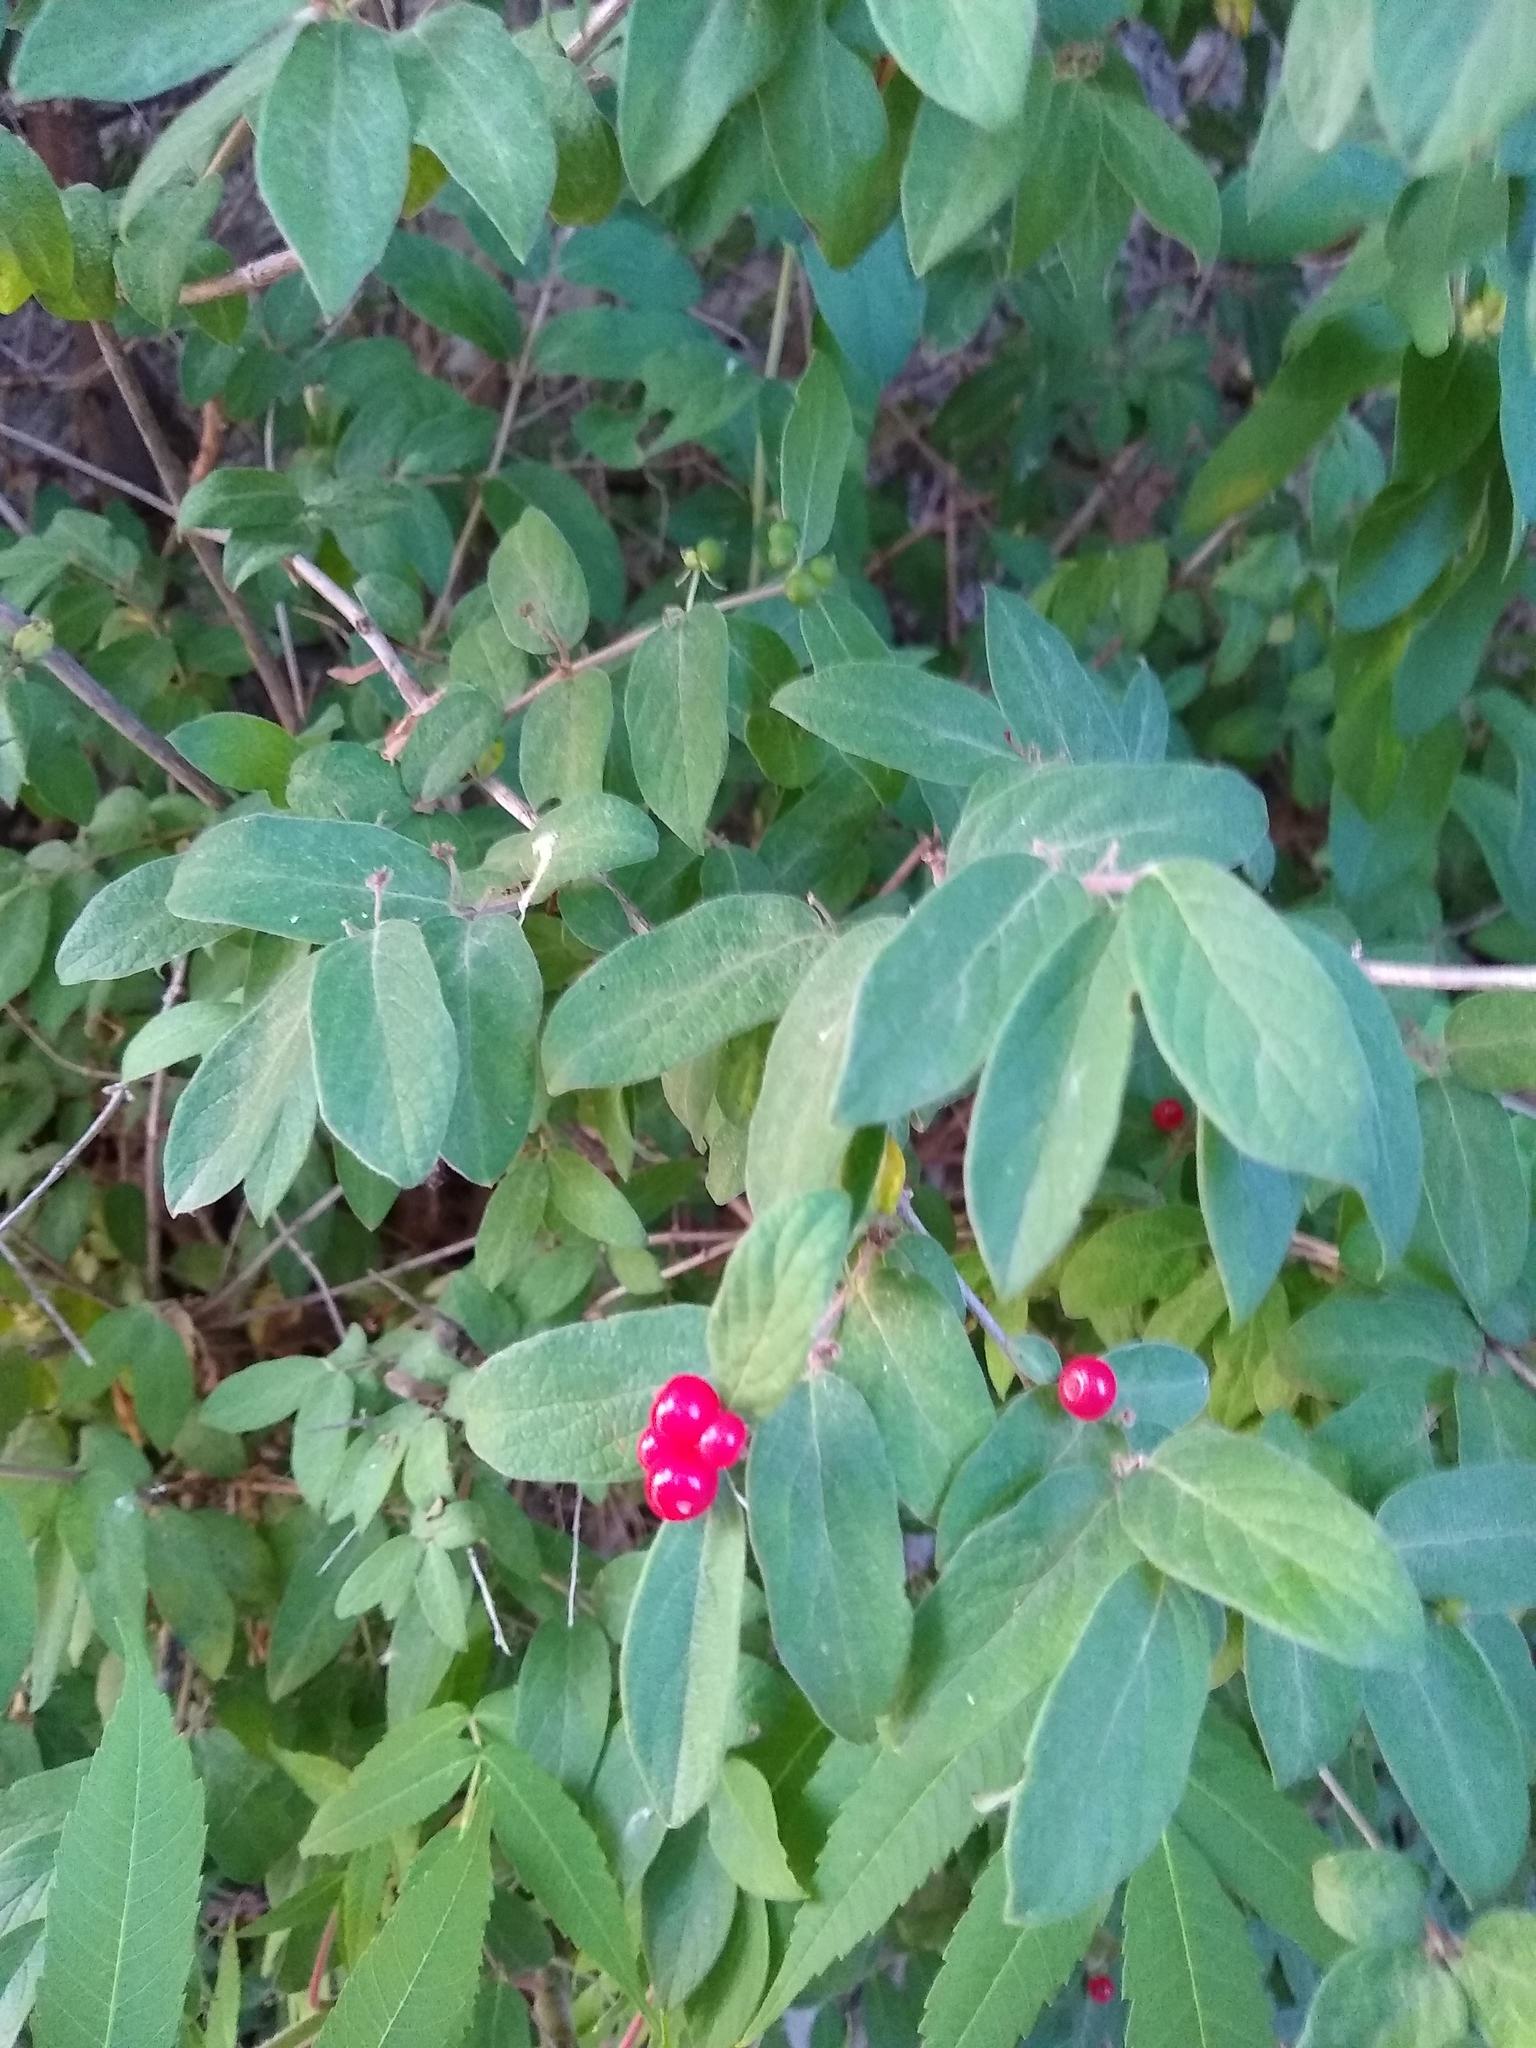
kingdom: Plantae
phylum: Tracheophyta
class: Magnoliopsida
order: Dipsacales
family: Caprifoliaceae
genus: Lonicera
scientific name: Lonicera
